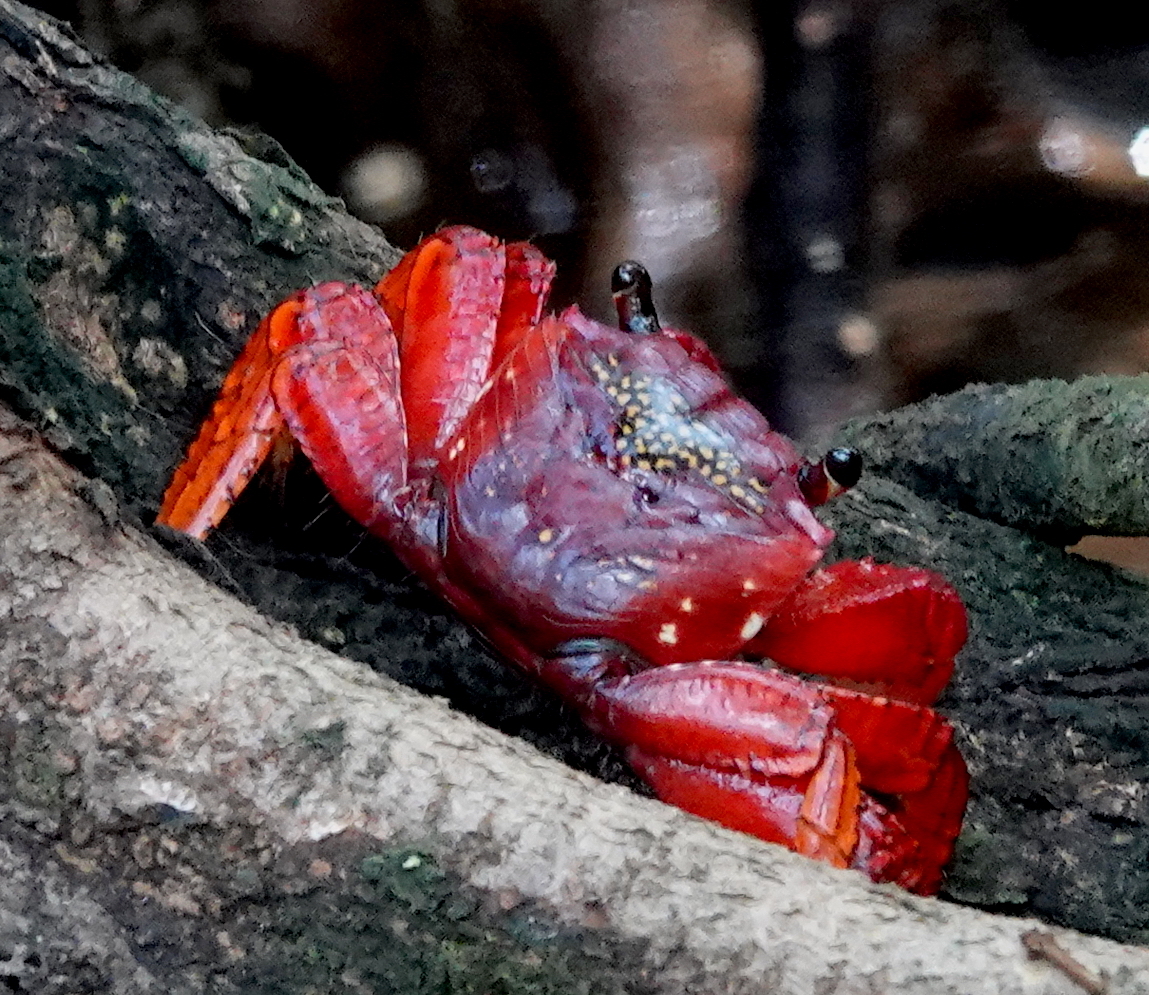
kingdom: Animalia
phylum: Arthropoda
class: Malacostraca
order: Decapoda
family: Grapsidae
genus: Goniopsis
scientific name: Goniopsis pulchra
